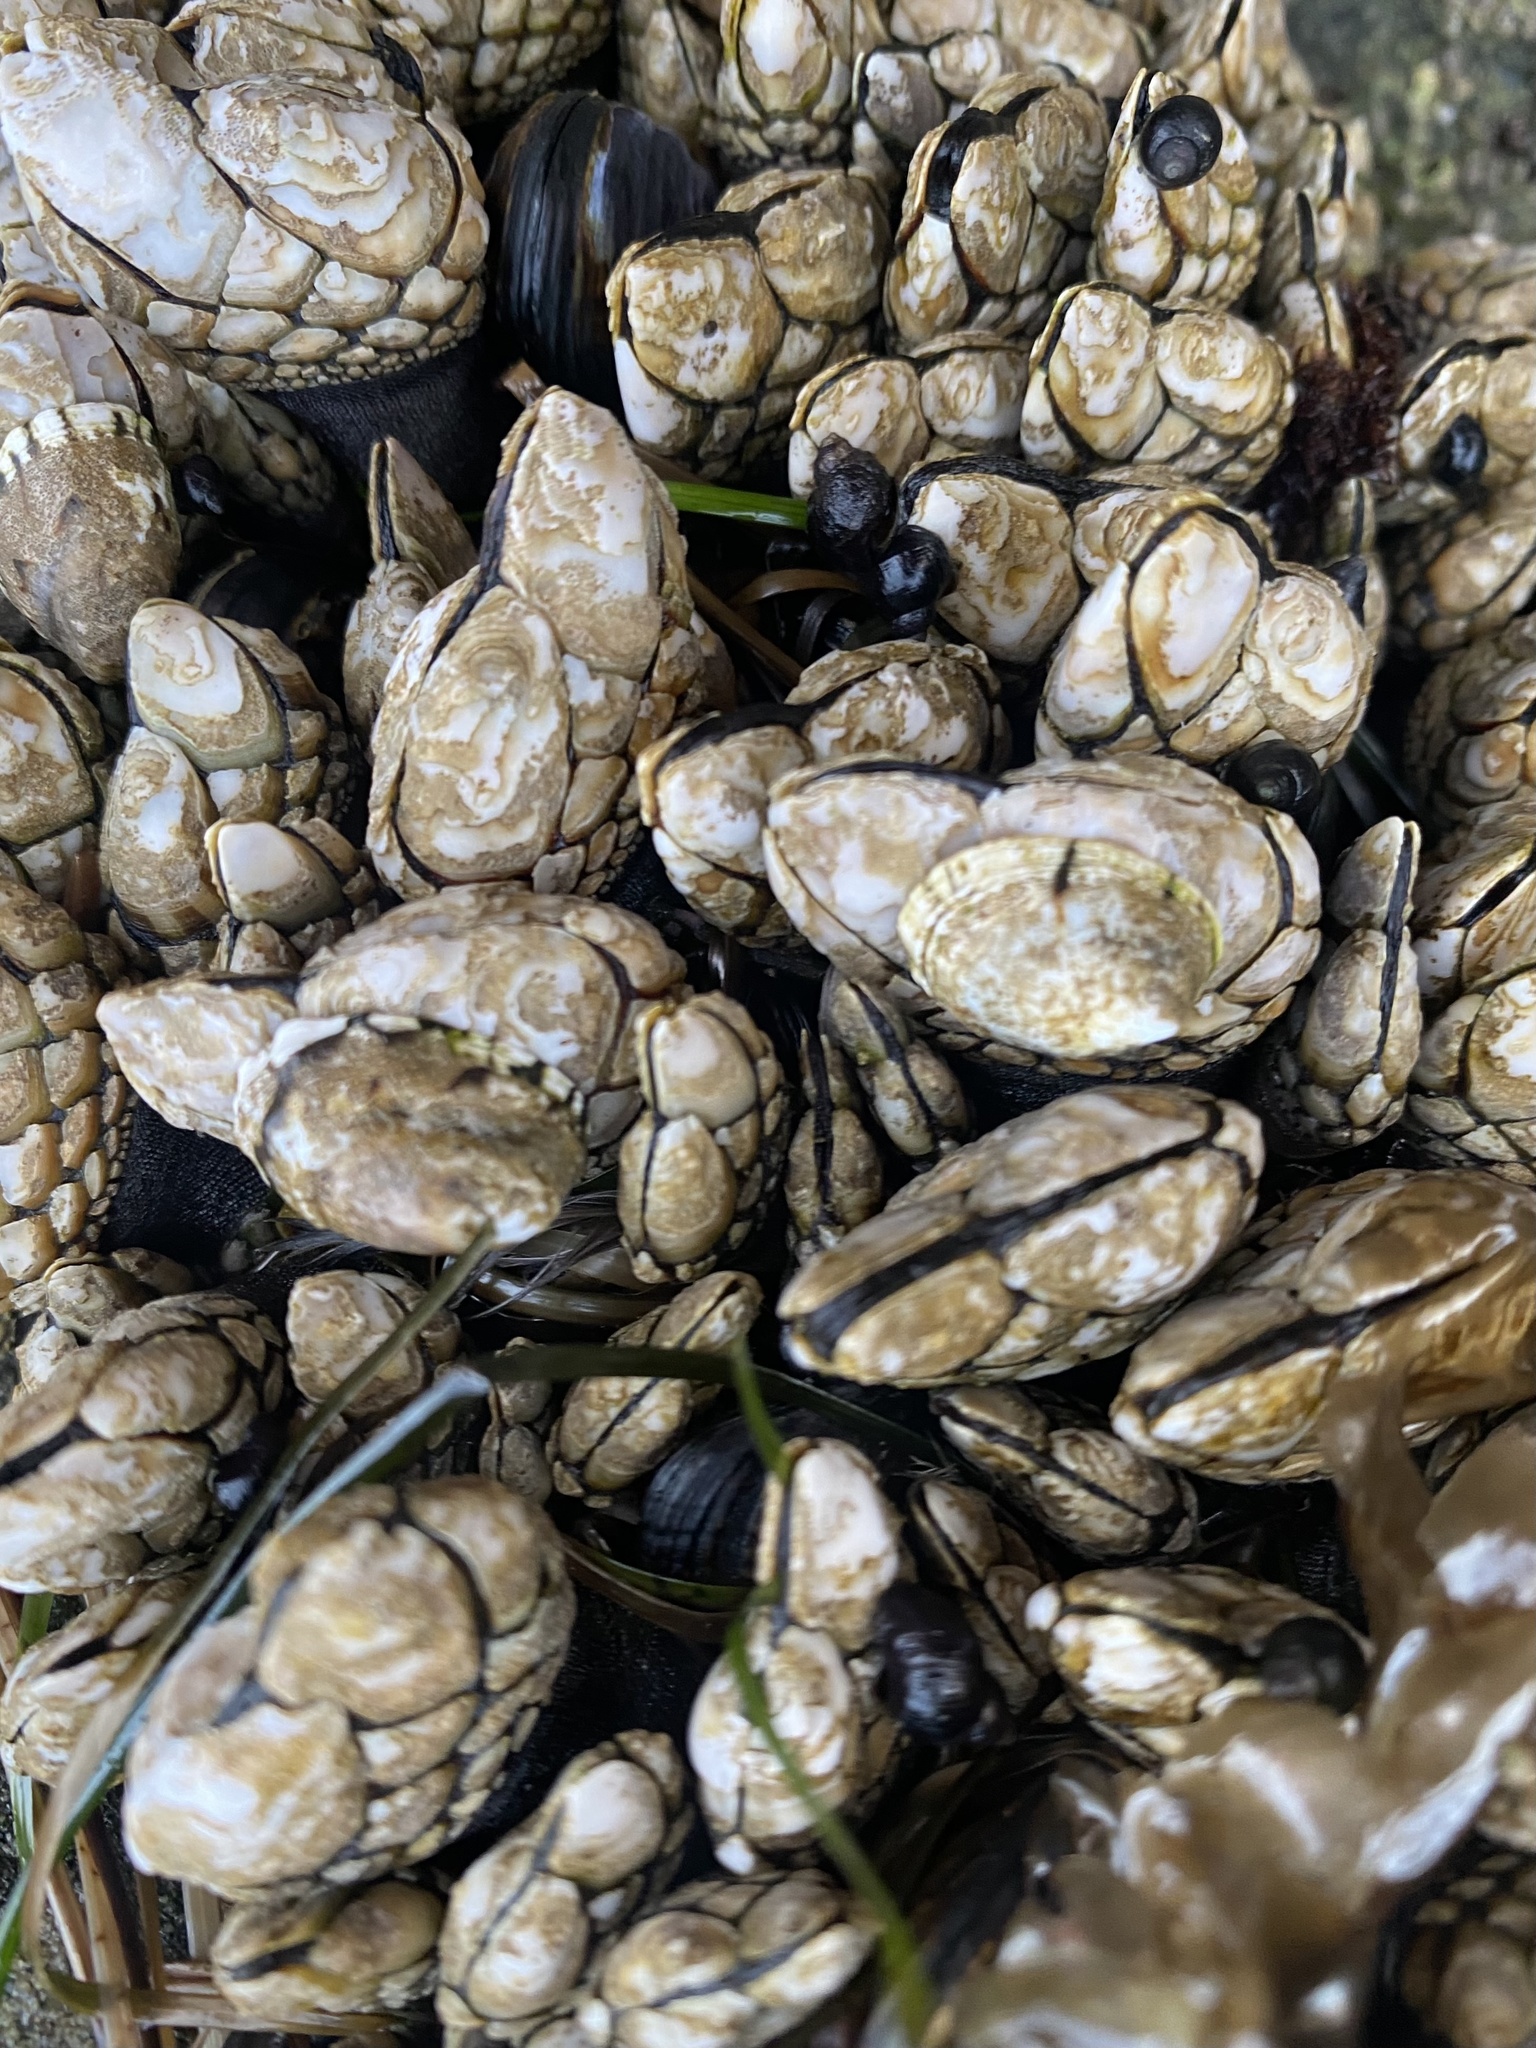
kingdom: Animalia
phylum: Arthropoda
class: Maxillopoda
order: Pedunculata
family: Pollicipedidae
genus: Pollicipes
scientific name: Pollicipes polymerus
